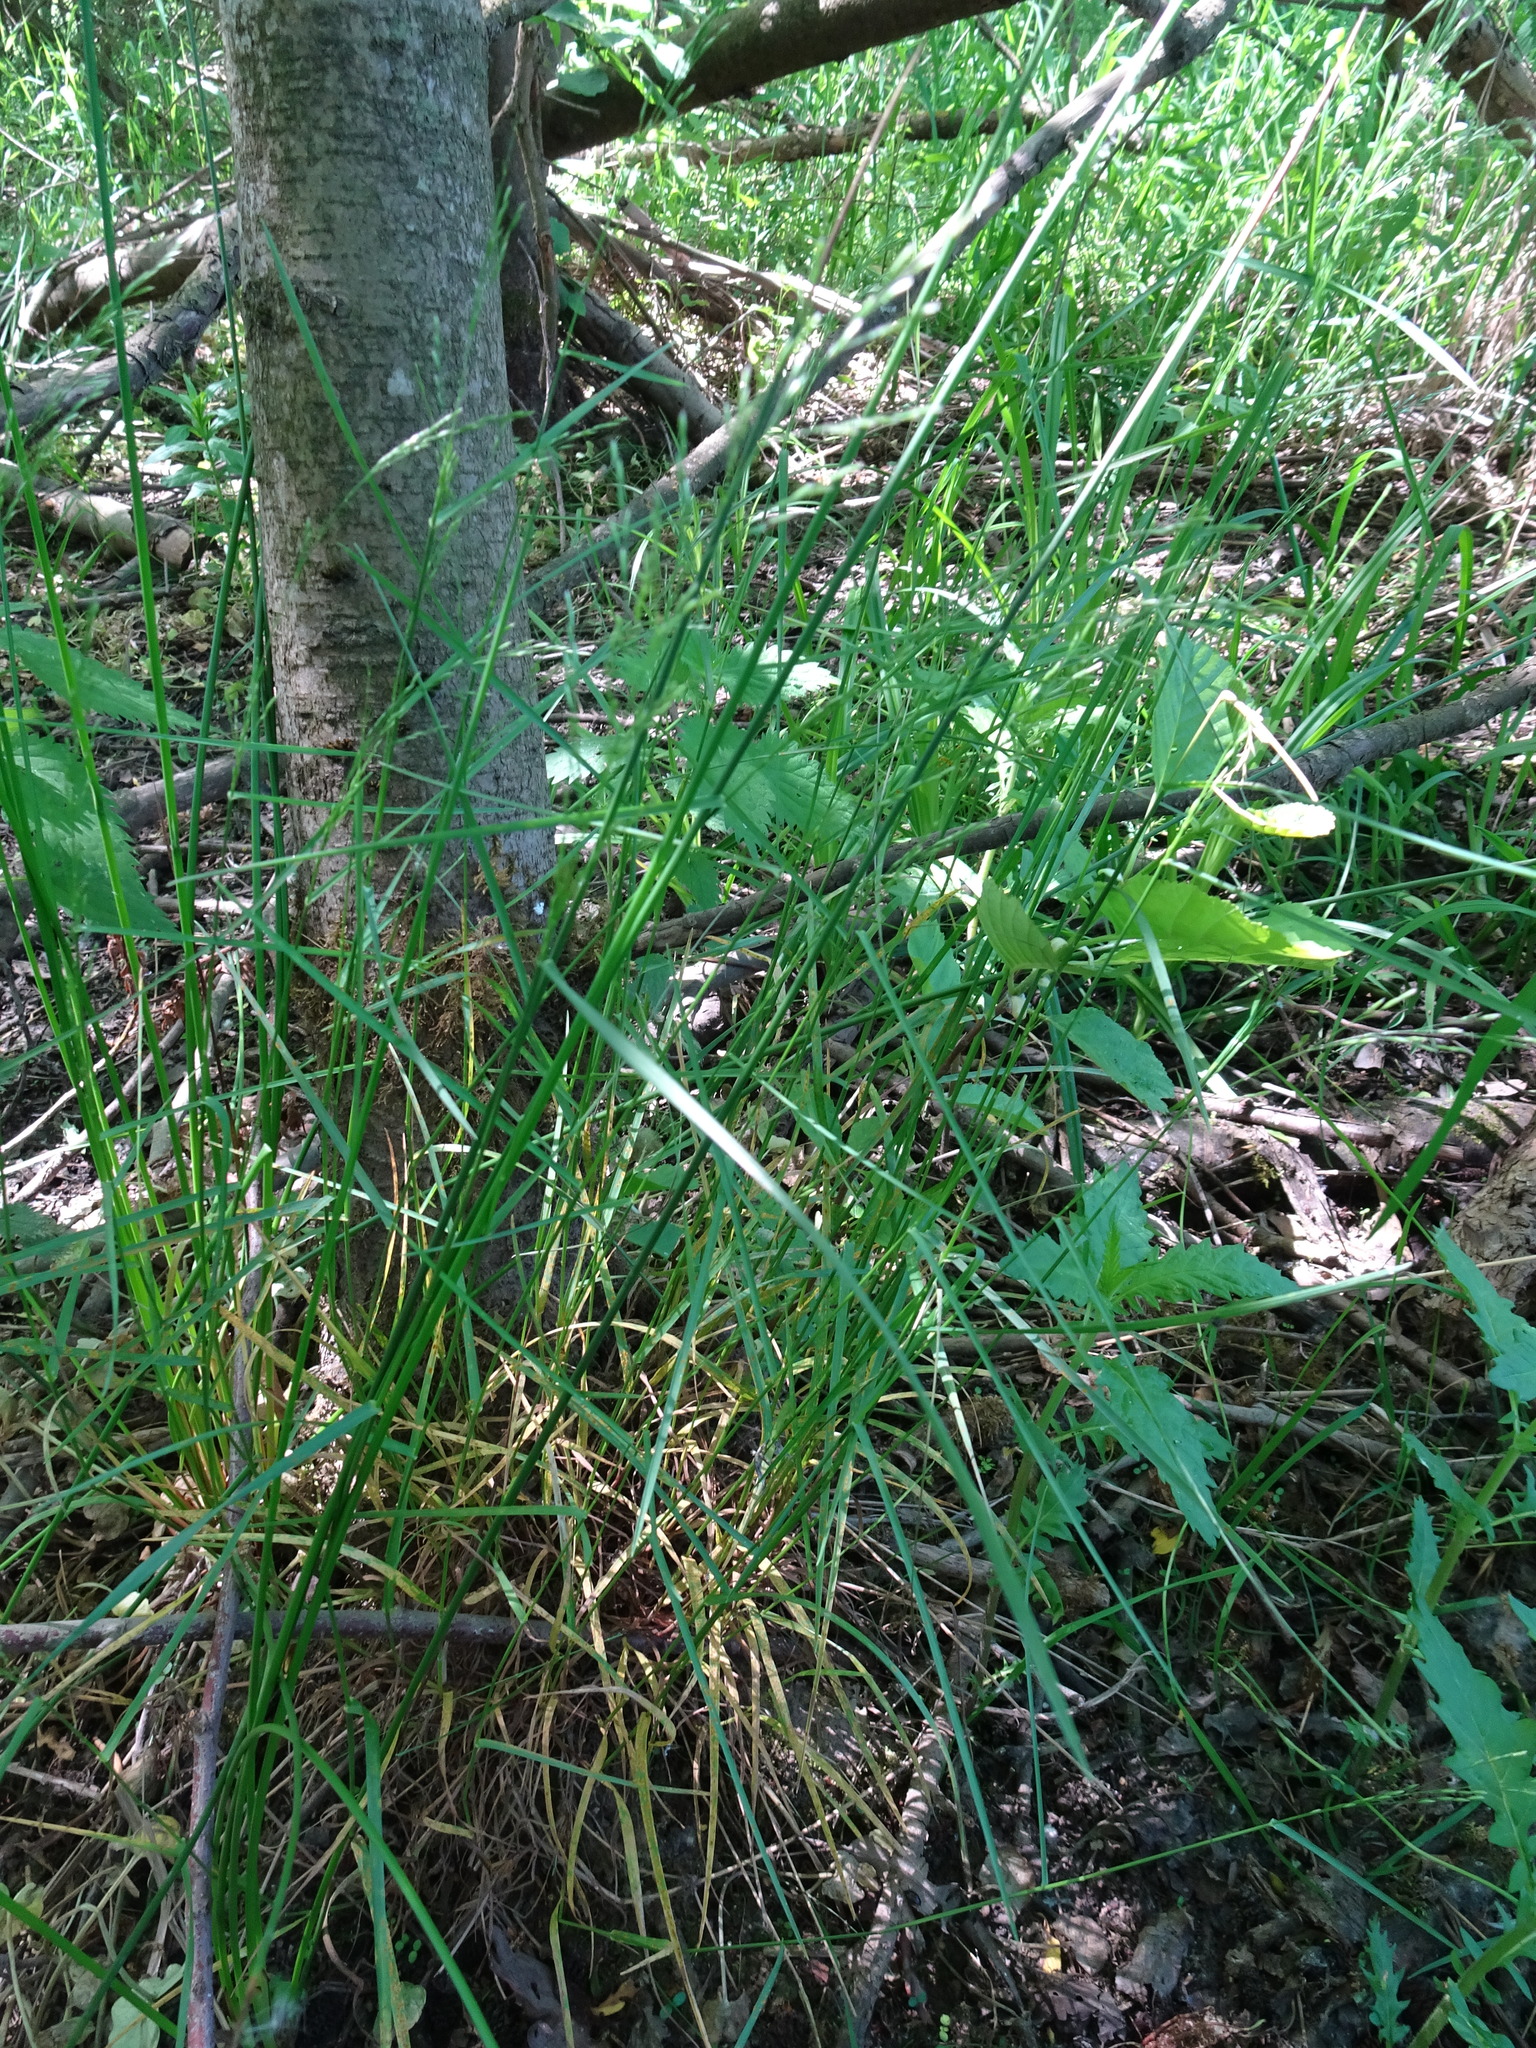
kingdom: Plantae
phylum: Tracheophyta
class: Liliopsida
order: Poales
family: Poaceae
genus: Poa
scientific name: Poa nemoralis
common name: Wood bluegrass
